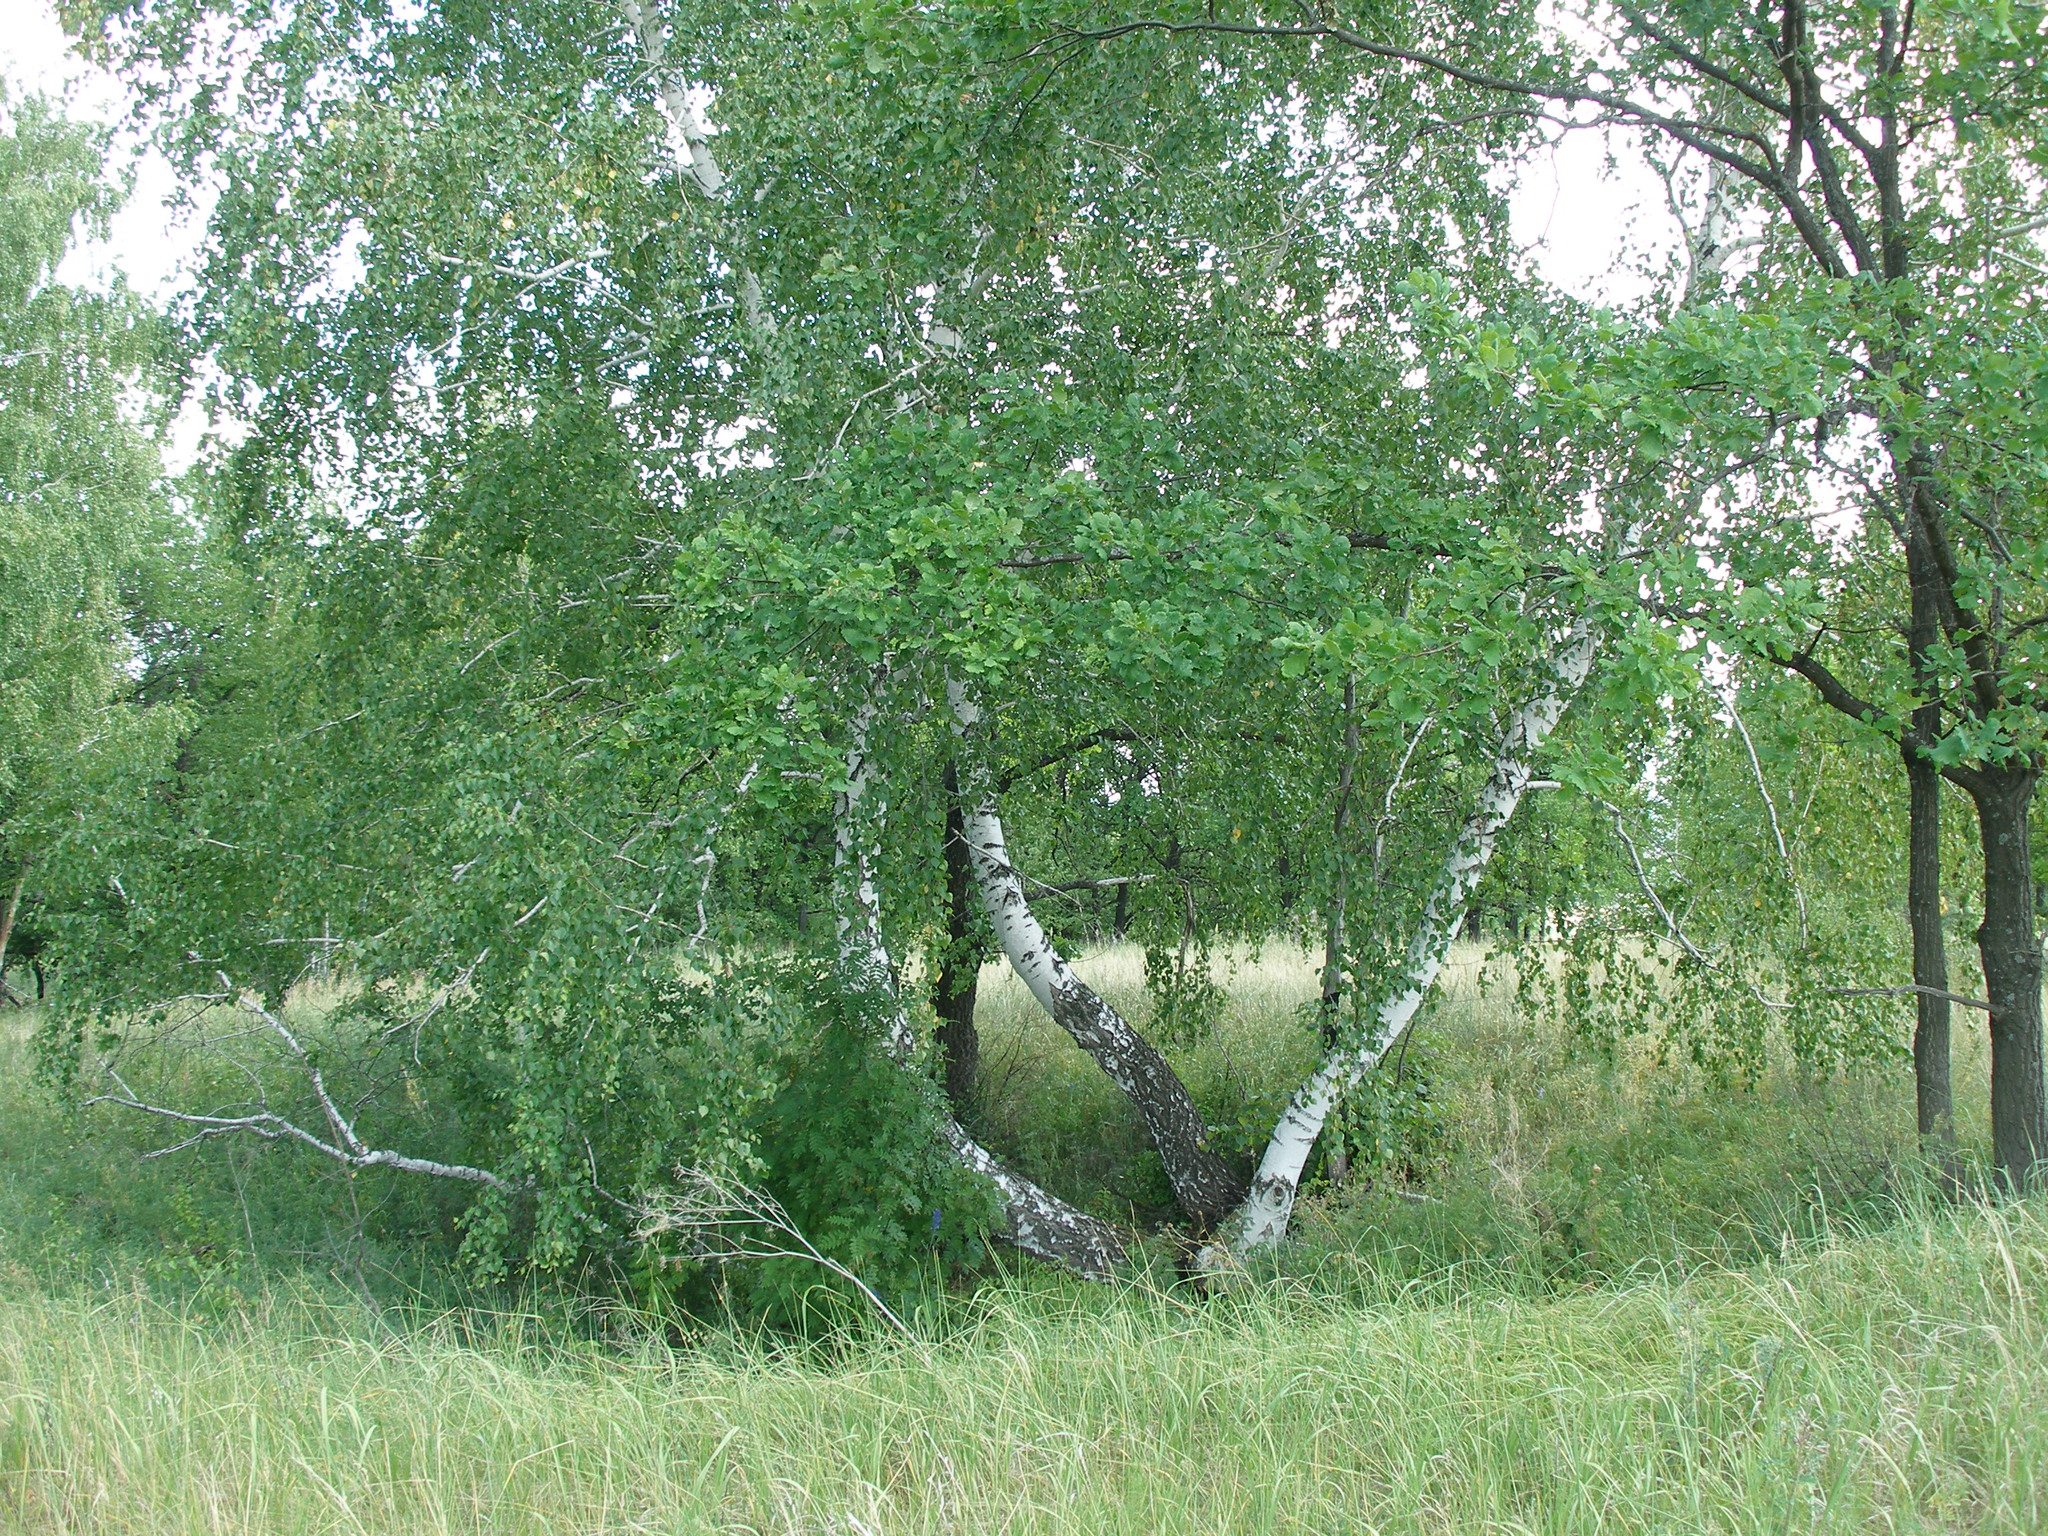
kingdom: Plantae
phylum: Tracheophyta
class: Magnoliopsida
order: Fagales
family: Betulaceae
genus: Betula
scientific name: Betula pendula
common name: Silver birch
